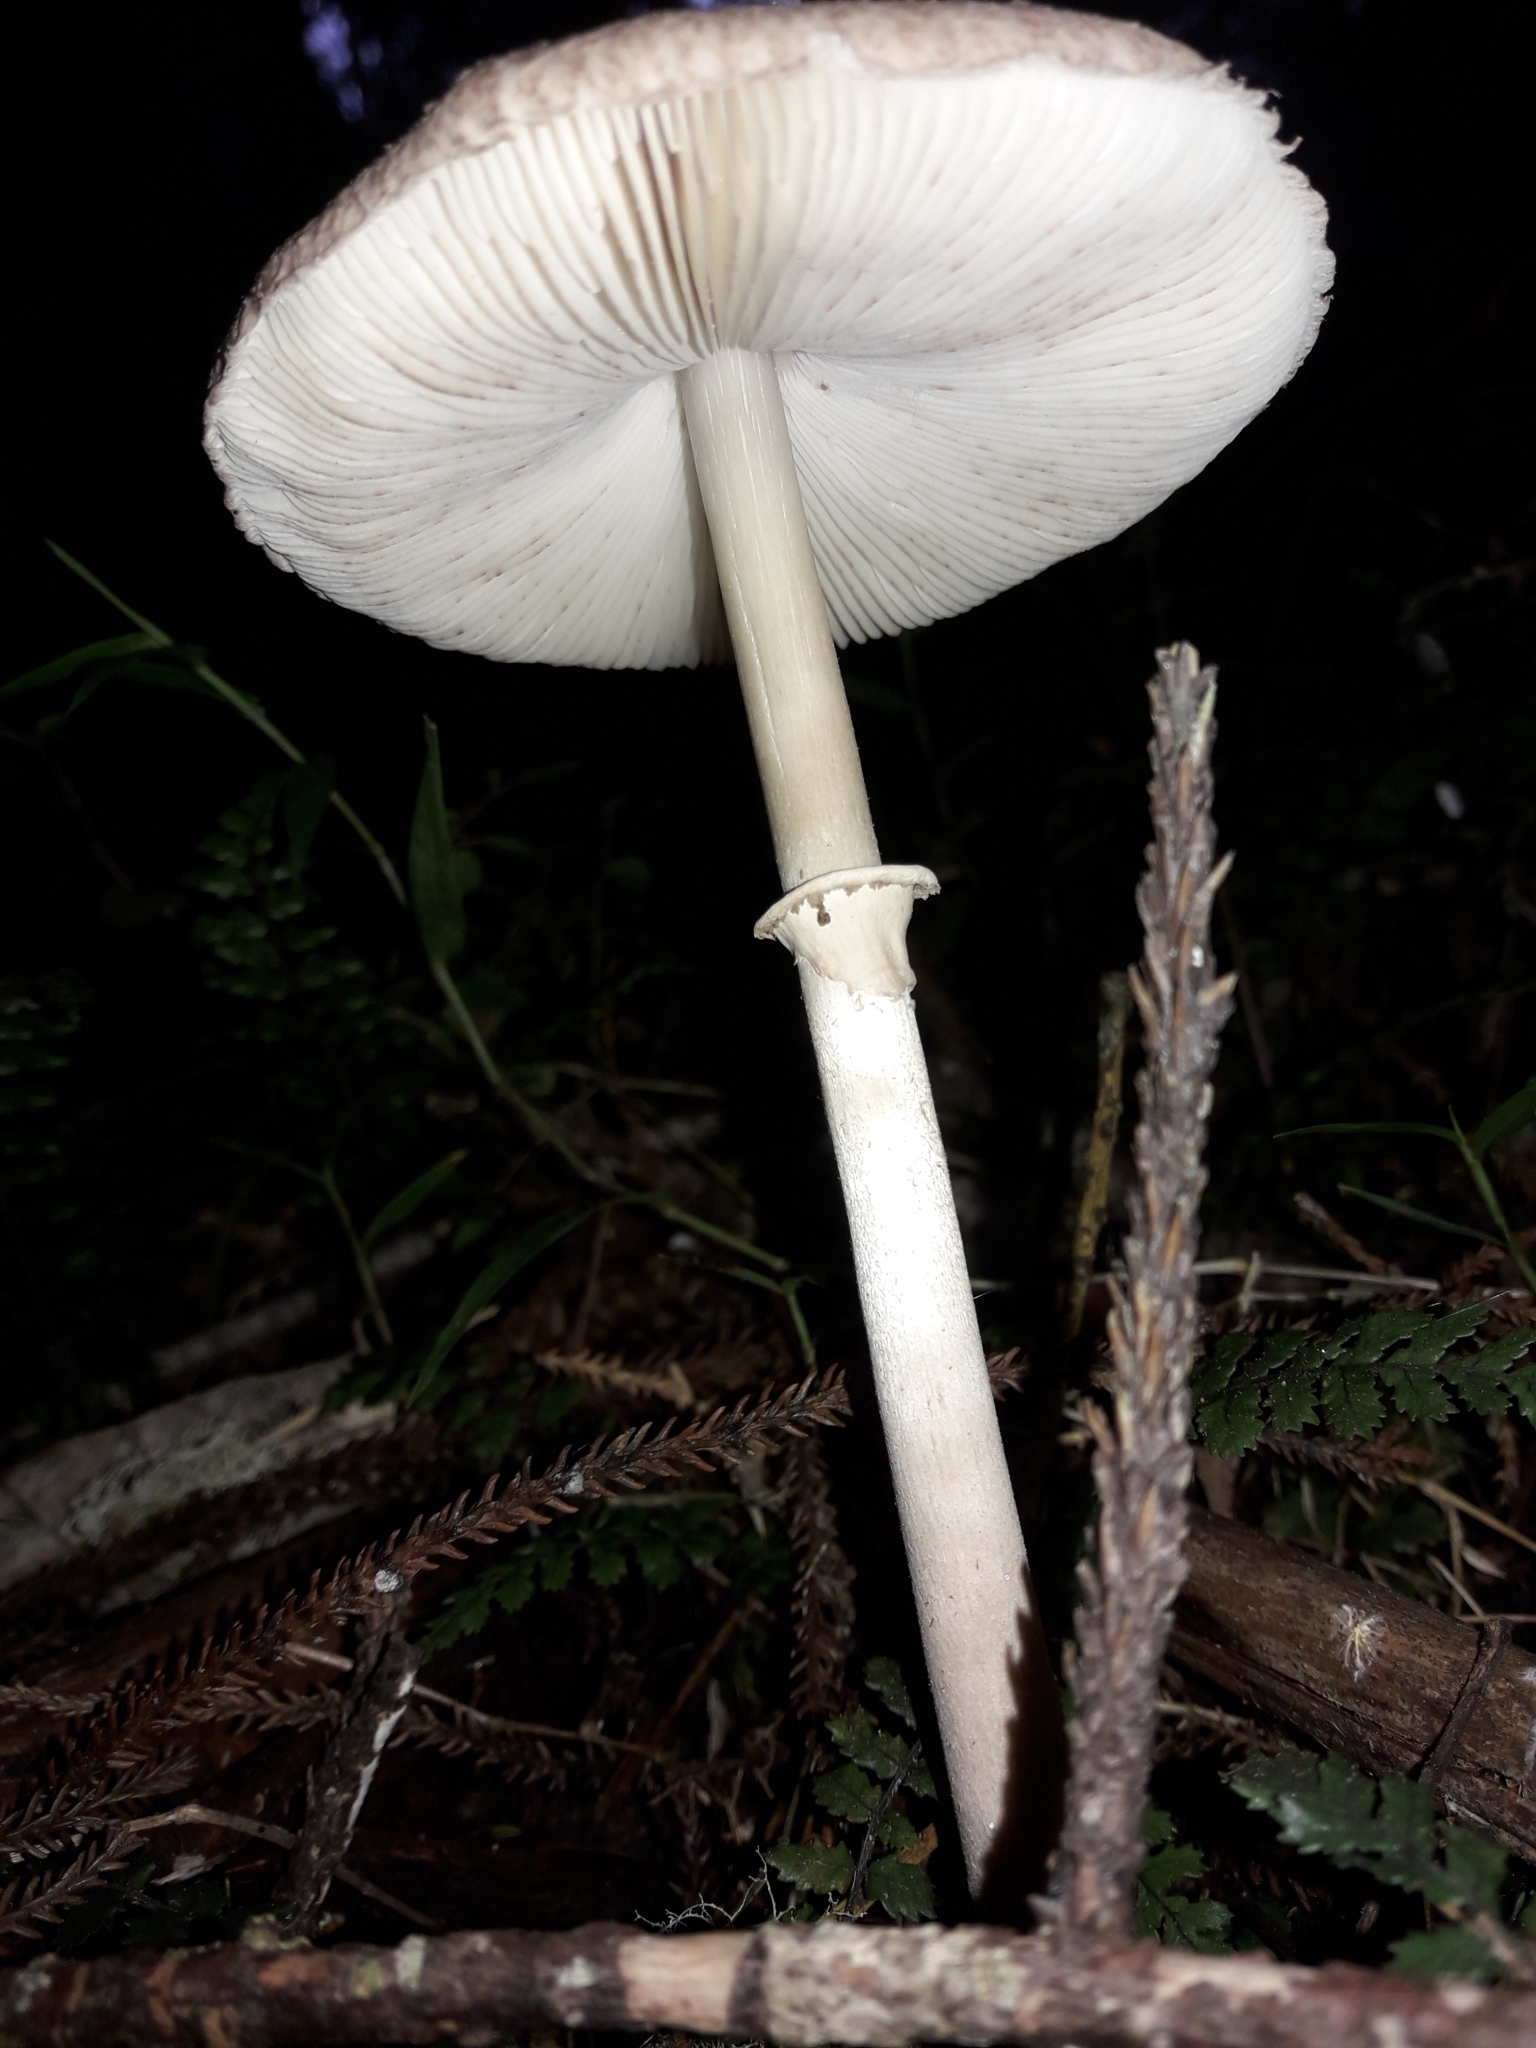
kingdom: Fungi
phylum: Basidiomycota
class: Agaricomycetes
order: Agaricales
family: Agaricaceae
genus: Macrolepiota
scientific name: Macrolepiota clelandii
